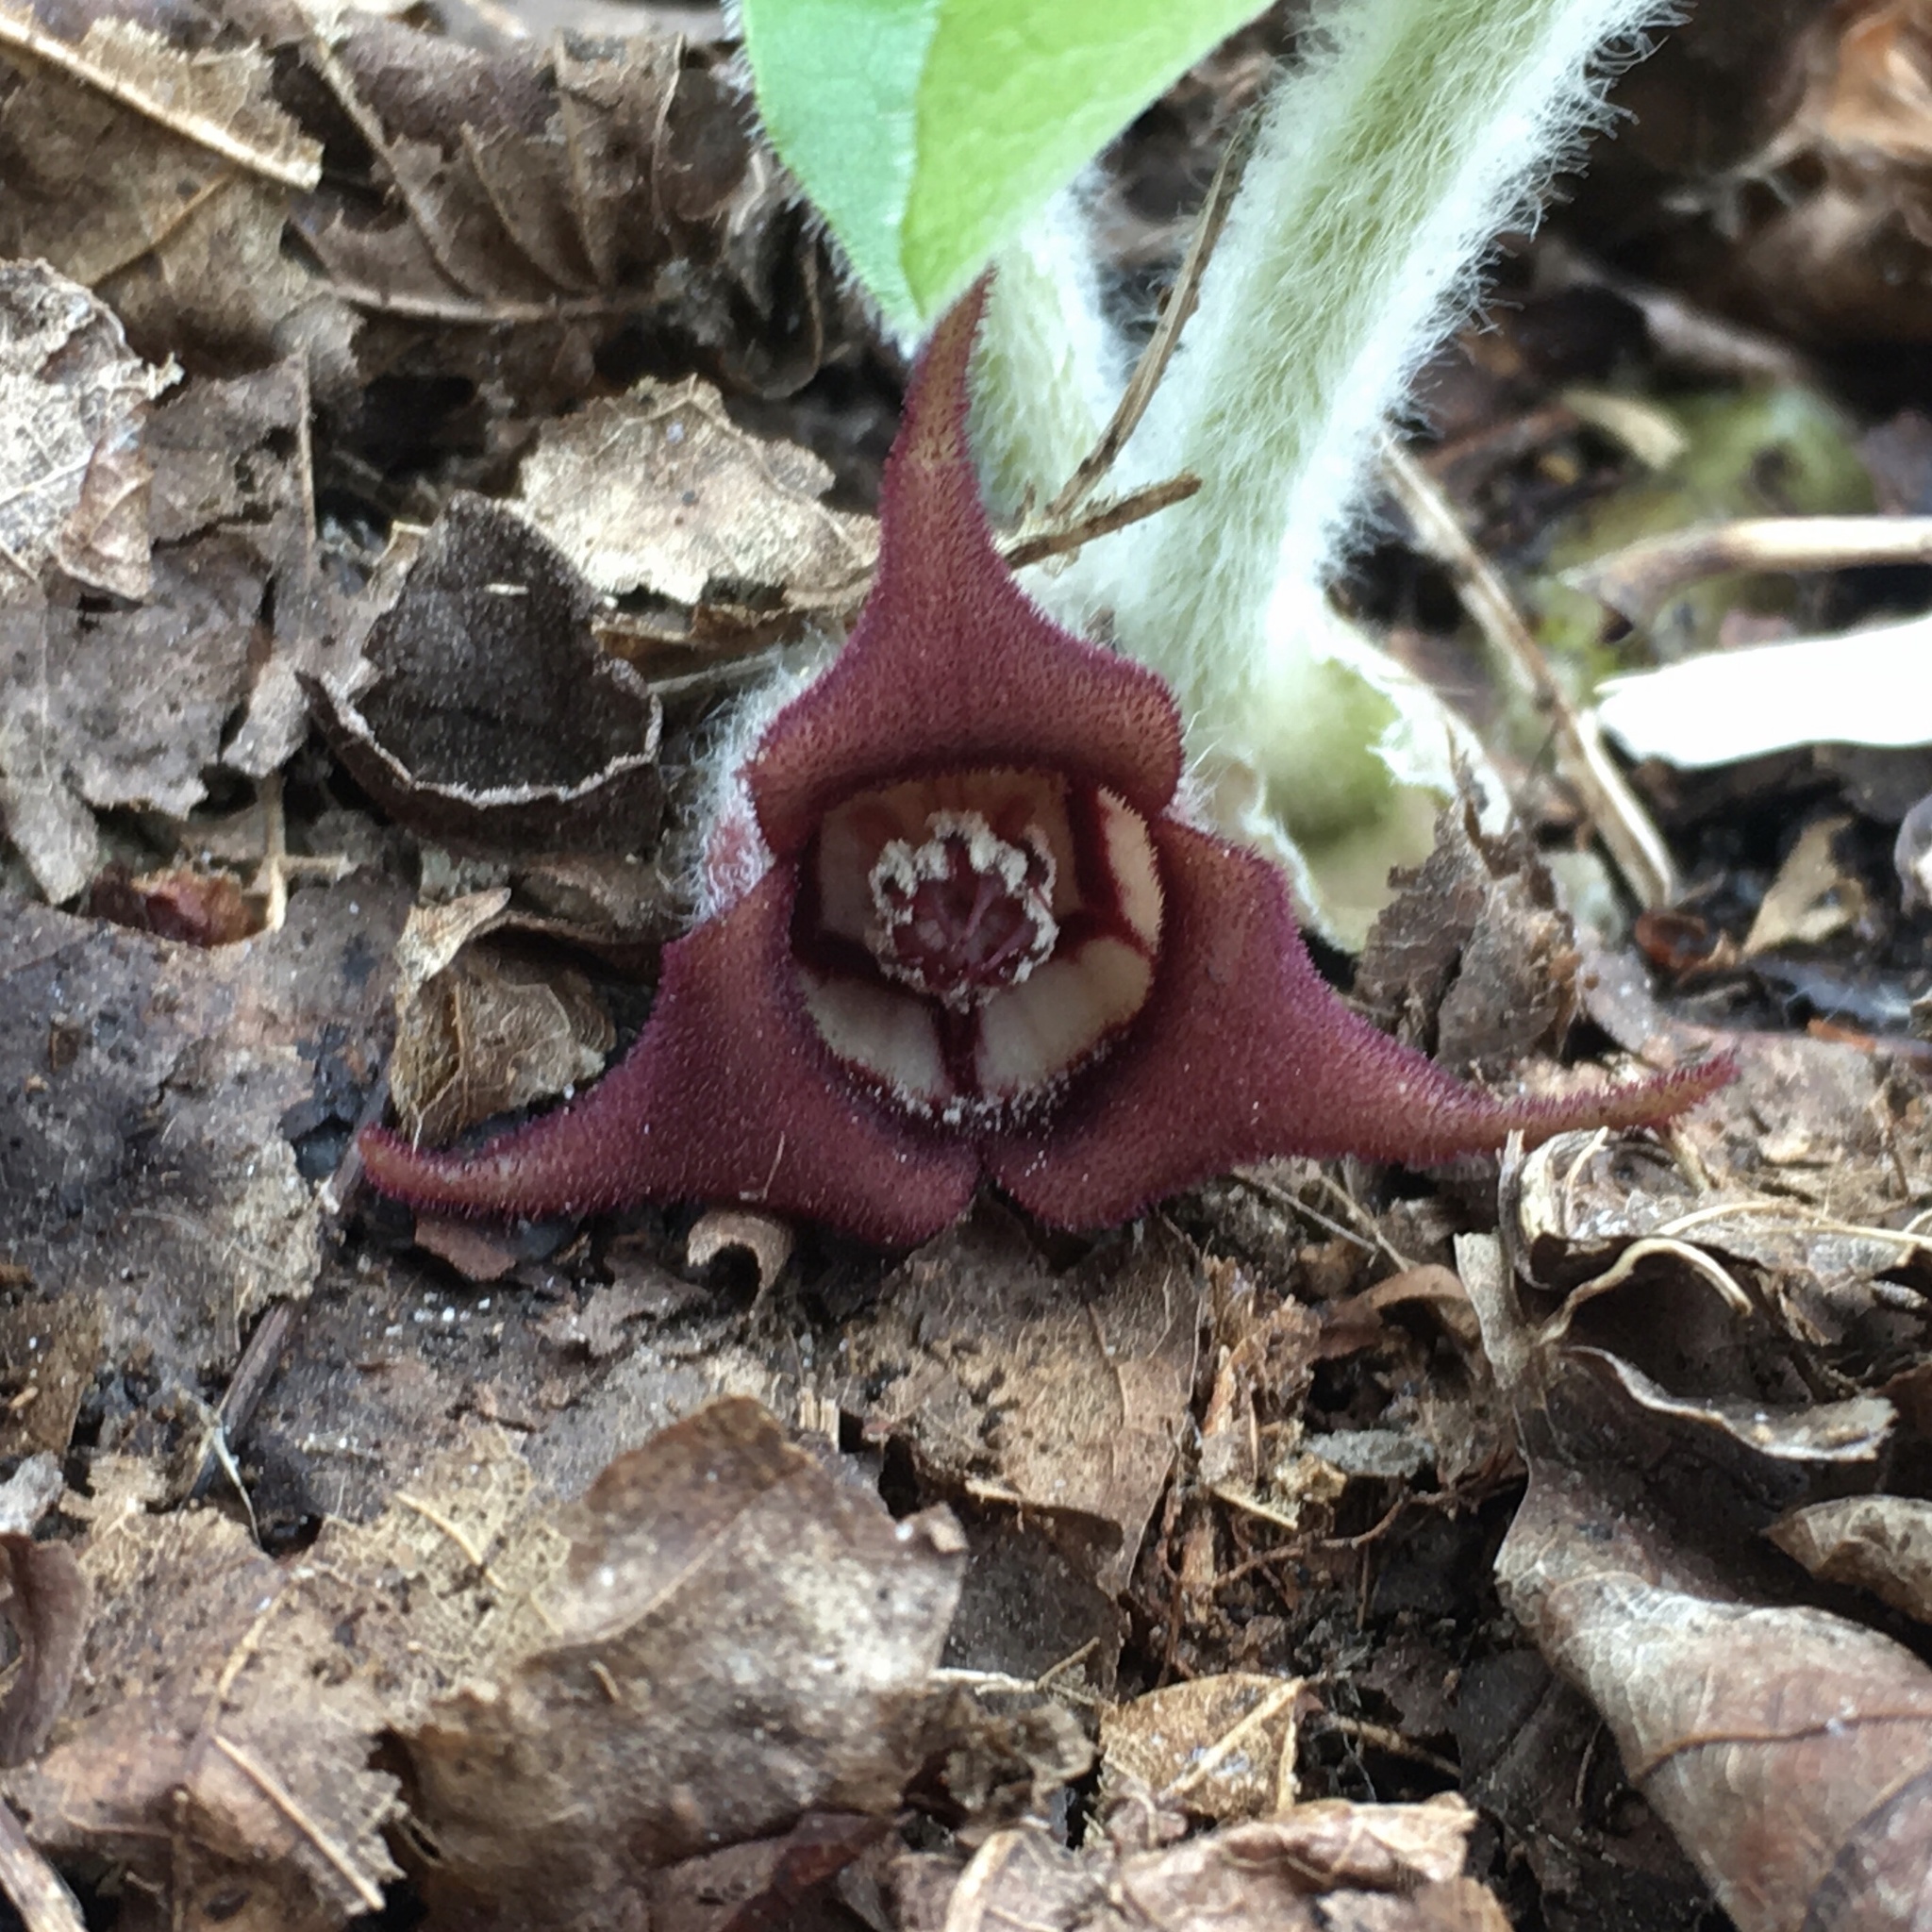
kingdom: Plantae
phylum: Tracheophyta
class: Magnoliopsida
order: Piperales
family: Aristolochiaceae
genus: Asarum
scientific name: Asarum canadense
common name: Wild ginger
